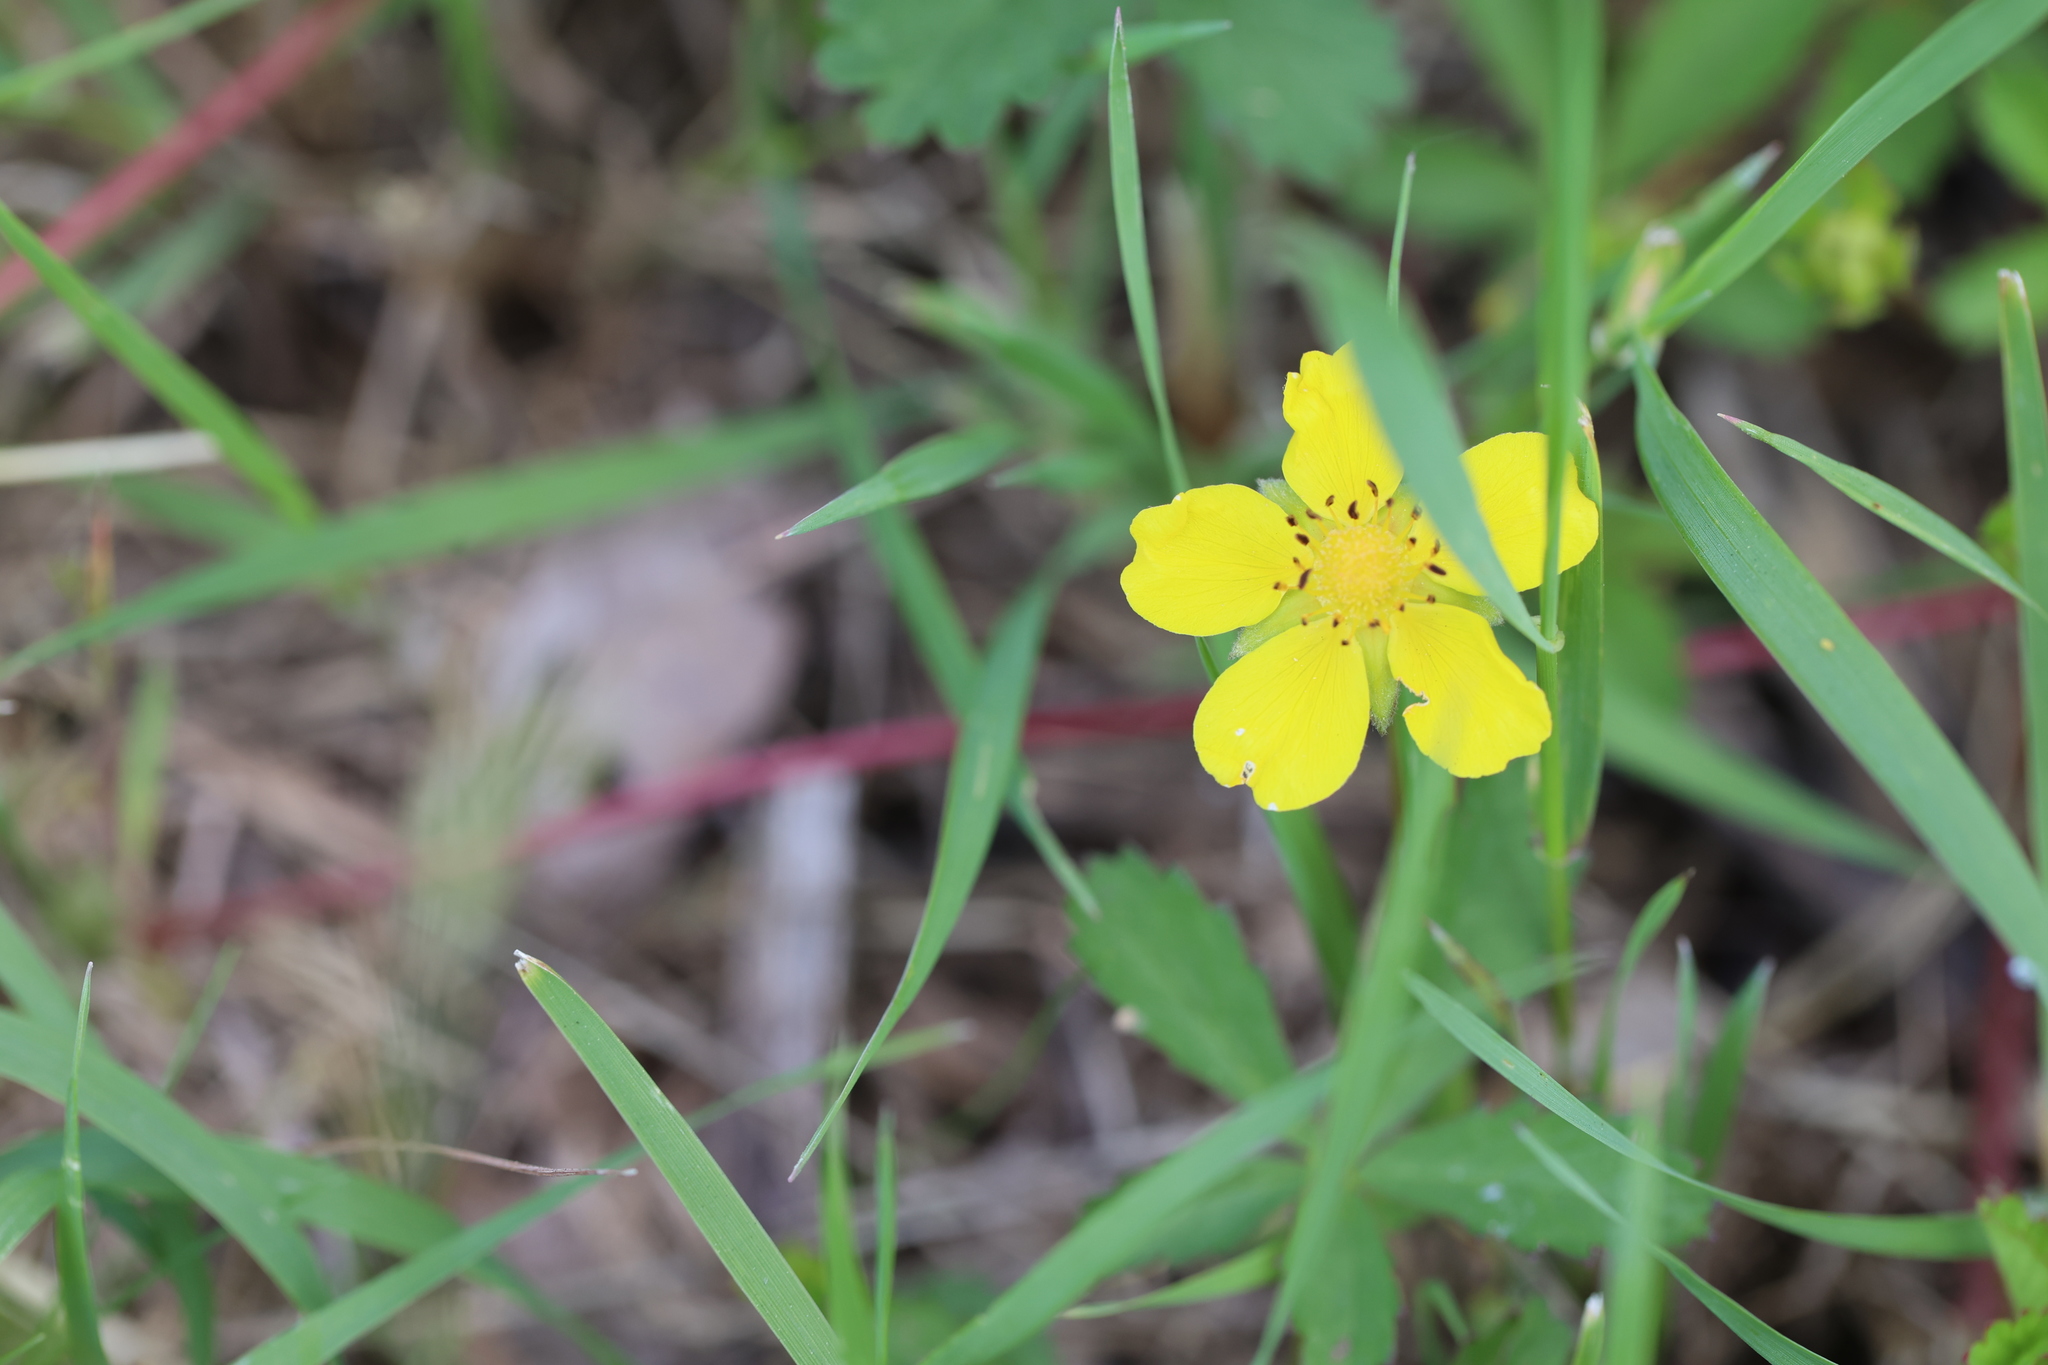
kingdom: Plantae
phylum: Tracheophyta
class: Magnoliopsida
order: Rosales
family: Rosaceae
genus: Argentina
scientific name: Argentina anserina
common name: Common silverweed
